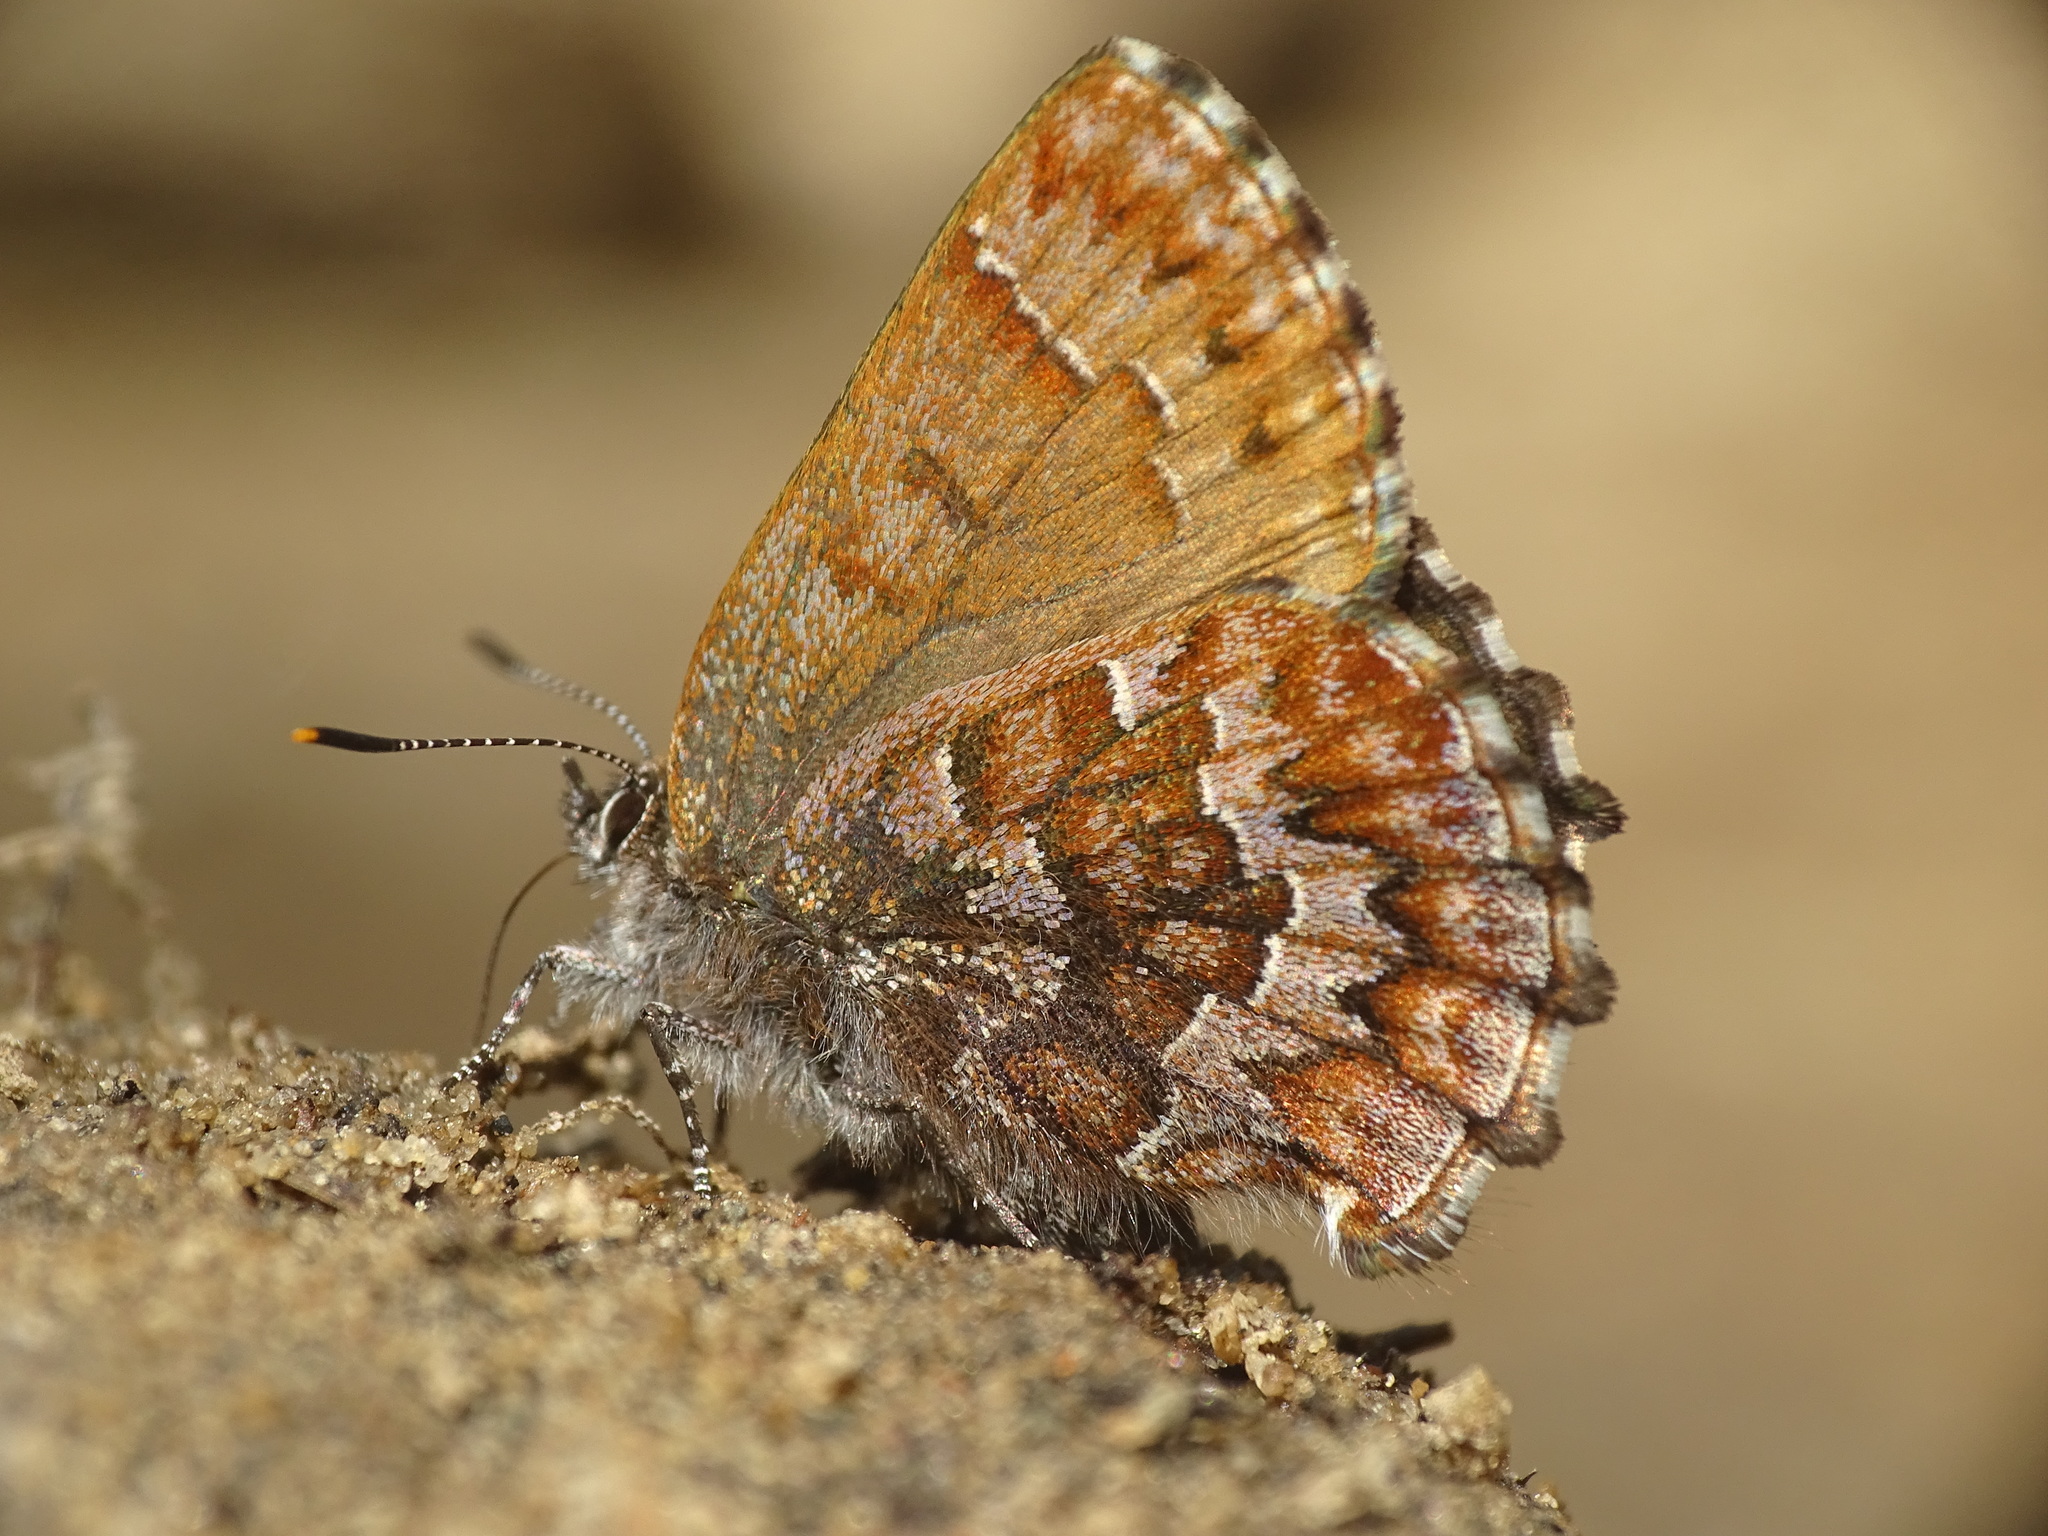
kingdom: Animalia
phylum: Arthropoda
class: Insecta
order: Lepidoptera
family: Lycaenidae
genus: Incisalia
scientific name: Incisalia niphon
